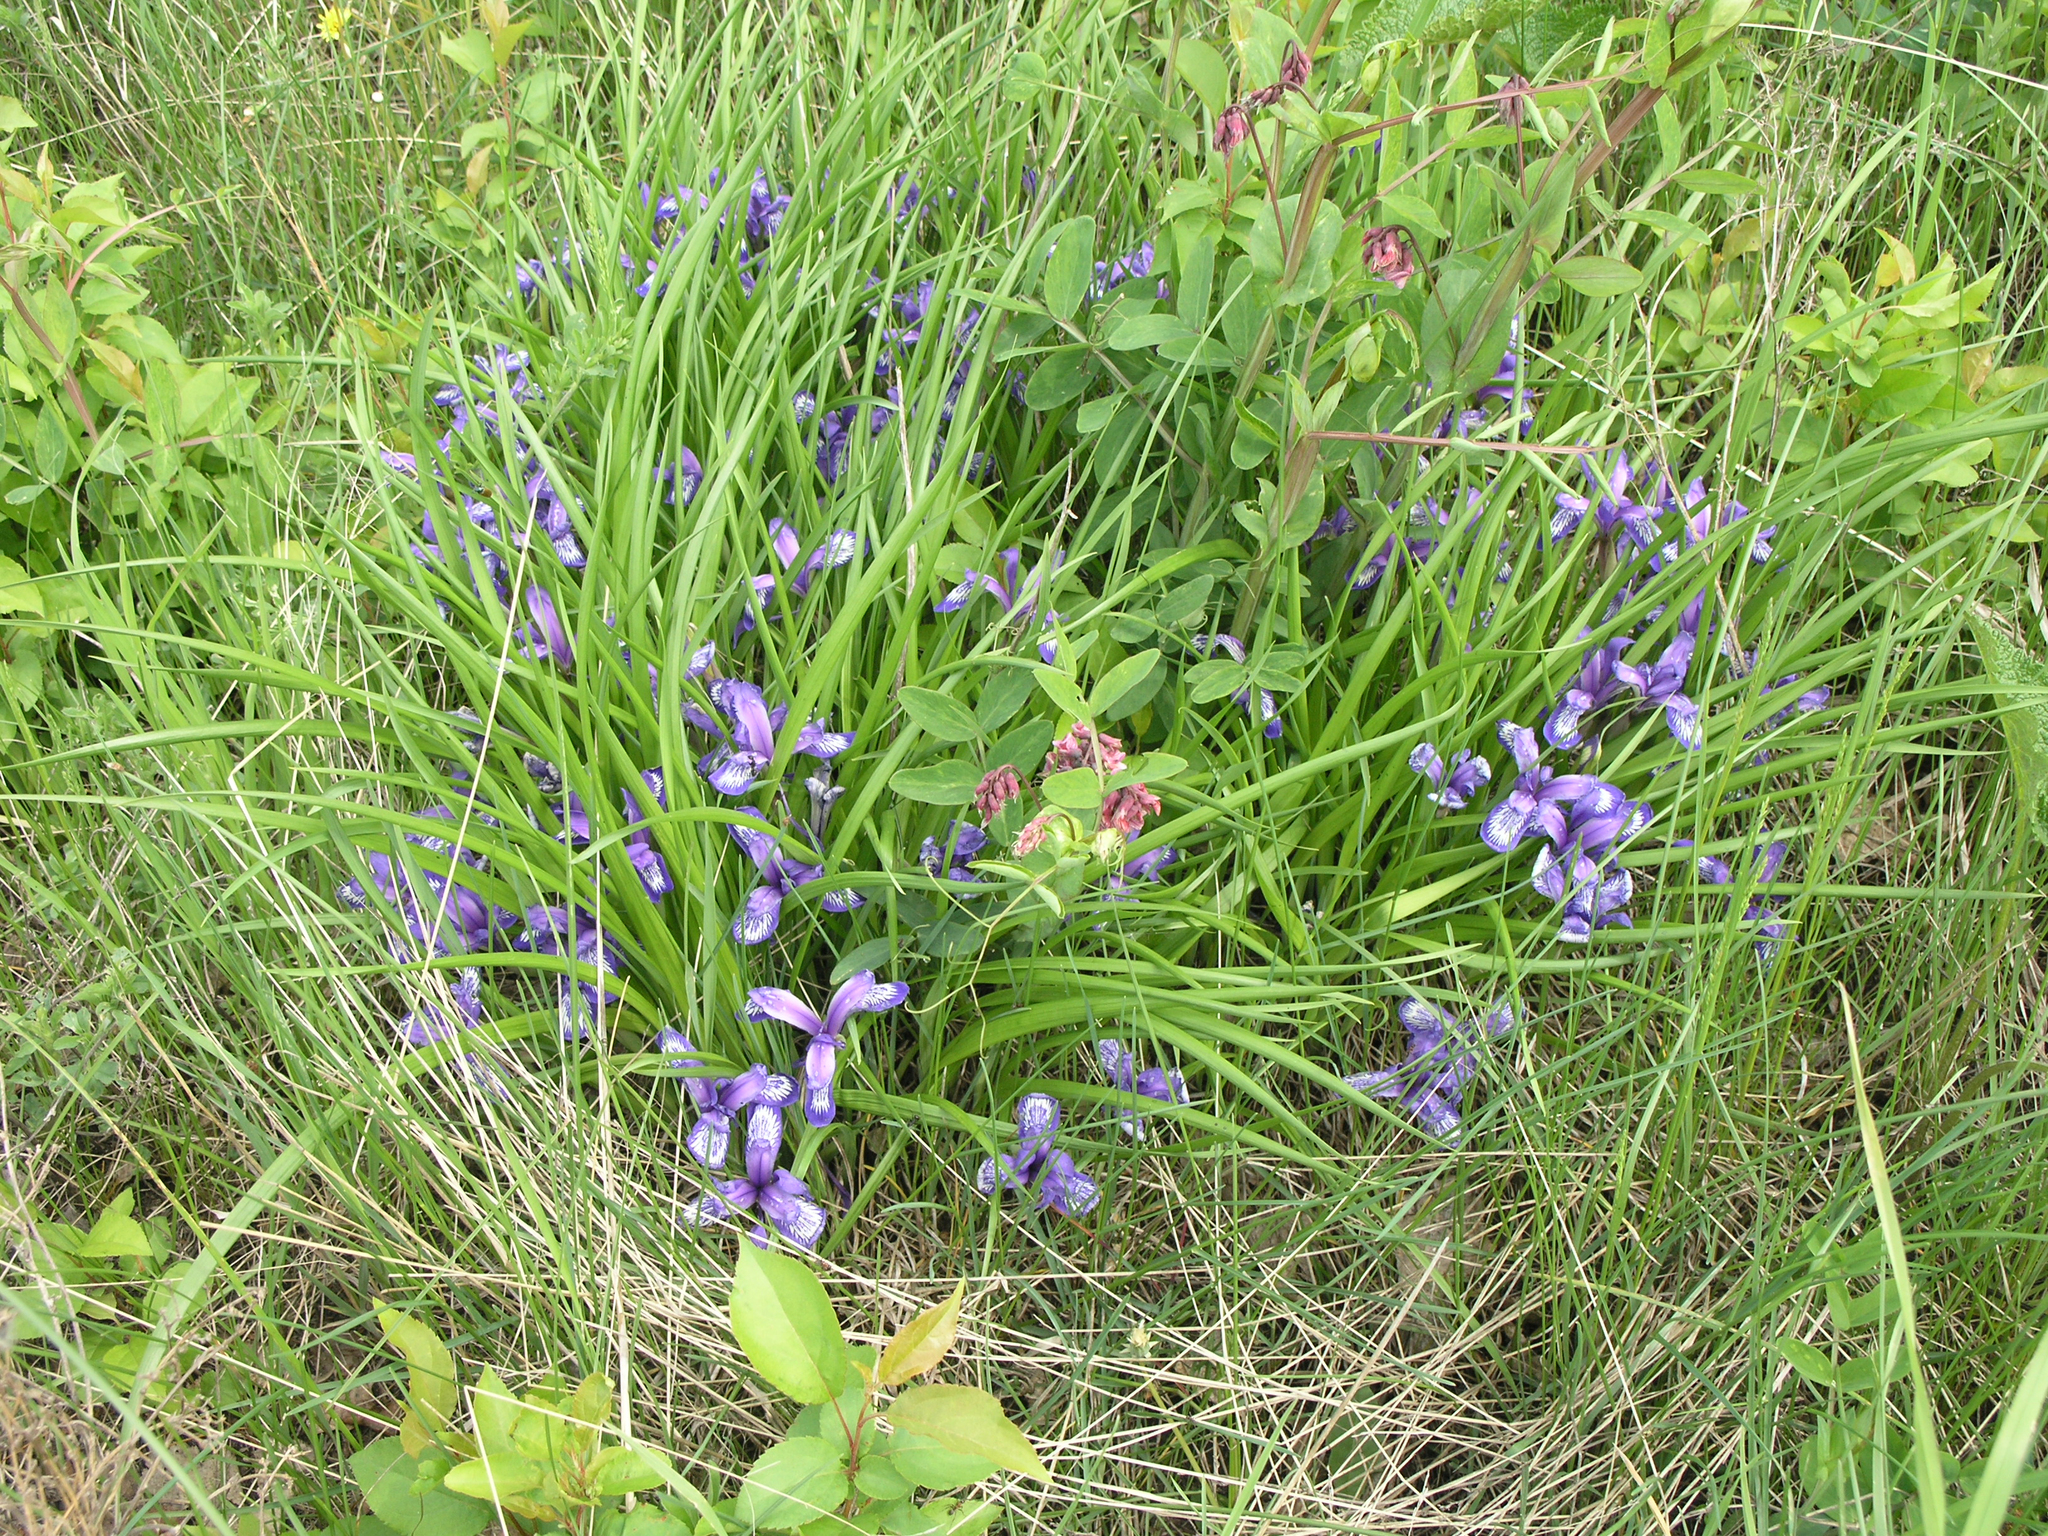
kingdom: Plantae
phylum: Tracheophyta
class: Magnoliopsida
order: Fabales
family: Fabaceae
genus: Lathyrus
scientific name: Lathyrus pisiformis
